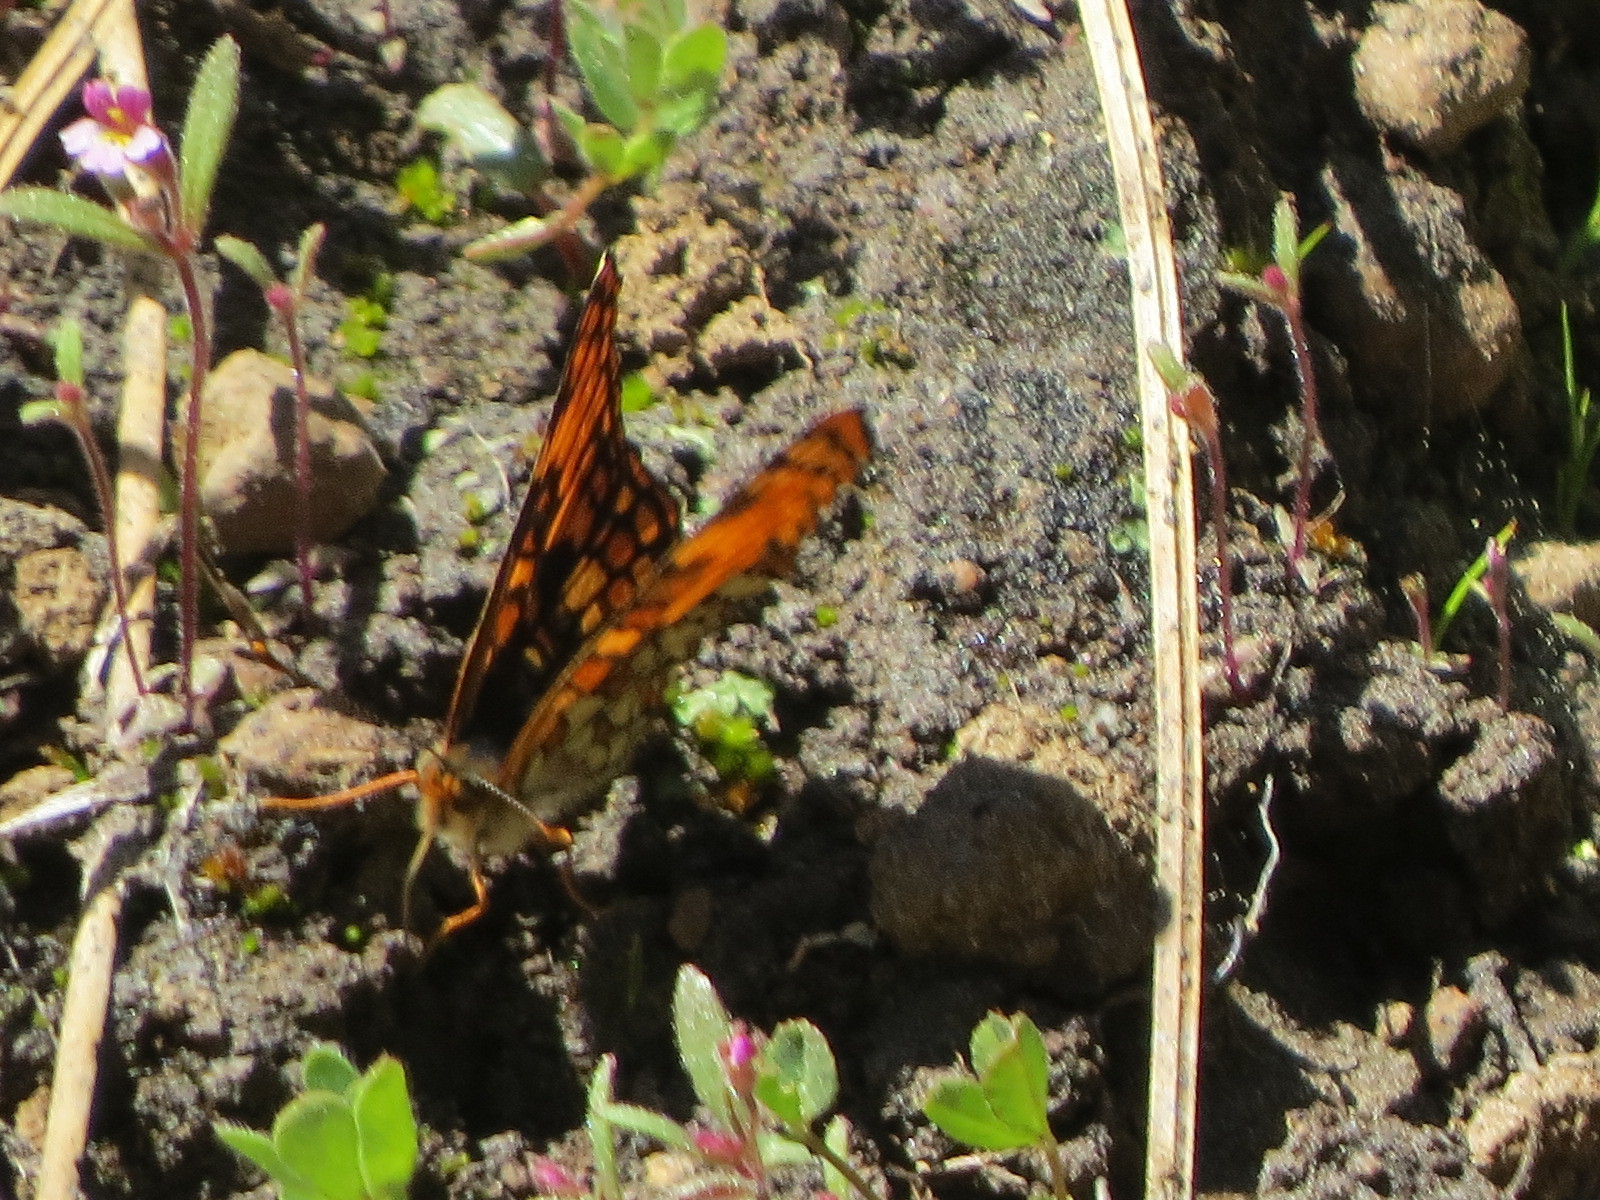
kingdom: Animalia
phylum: Arthropoda
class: Insecta
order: Lepidoptera
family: Nymphalidae
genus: Chlosyne
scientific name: Chlosyne hoffmanni
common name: Hoffmann's checkerspot
